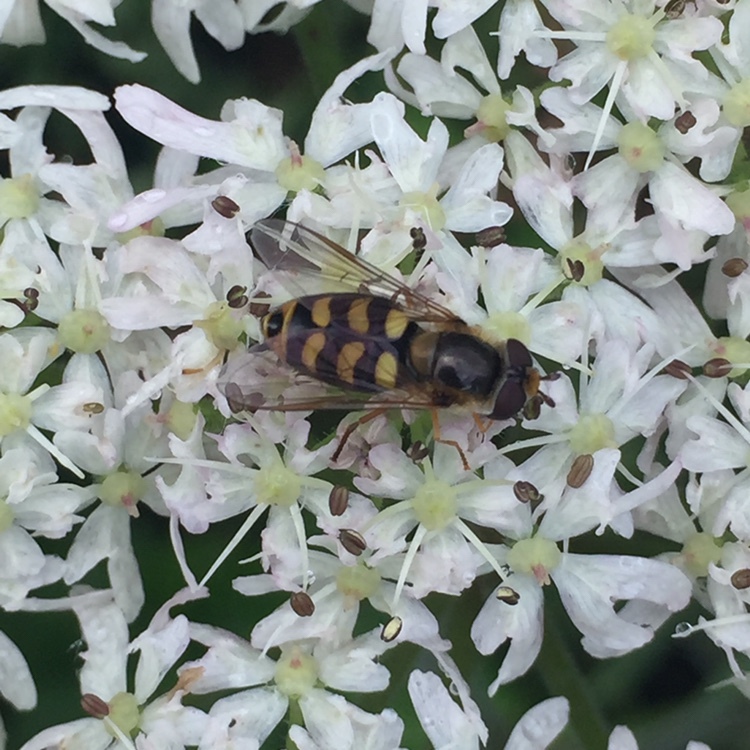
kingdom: Animalia
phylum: Arthropoda
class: Insecta
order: Diptera
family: Syrphidae
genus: Eupeodes
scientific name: Eupeodes luniger
